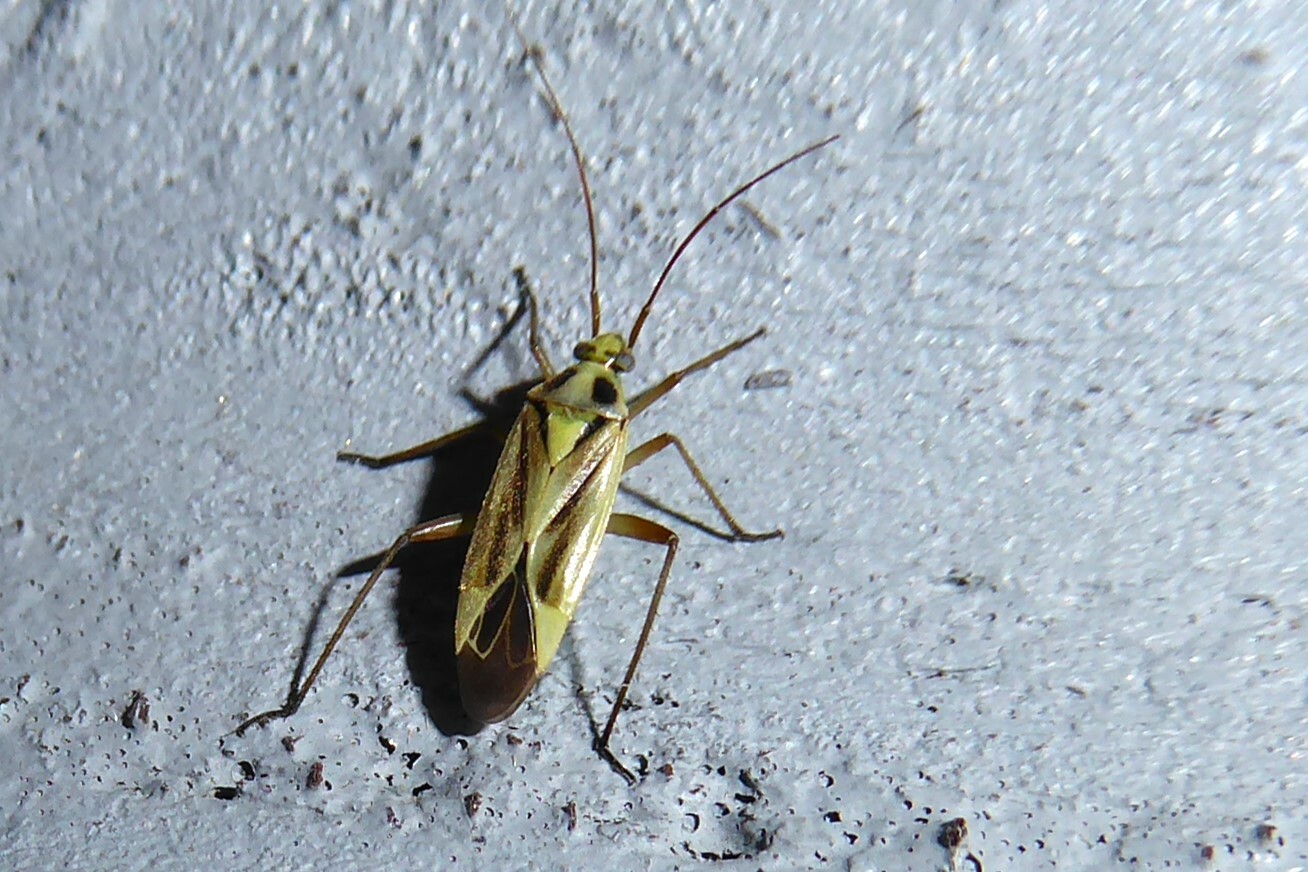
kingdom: Animalia
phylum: Arthropoda
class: Insecta
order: Hemiptera
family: Miridae
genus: Stenotus
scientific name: Stenotus binotatus
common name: Plant bug
